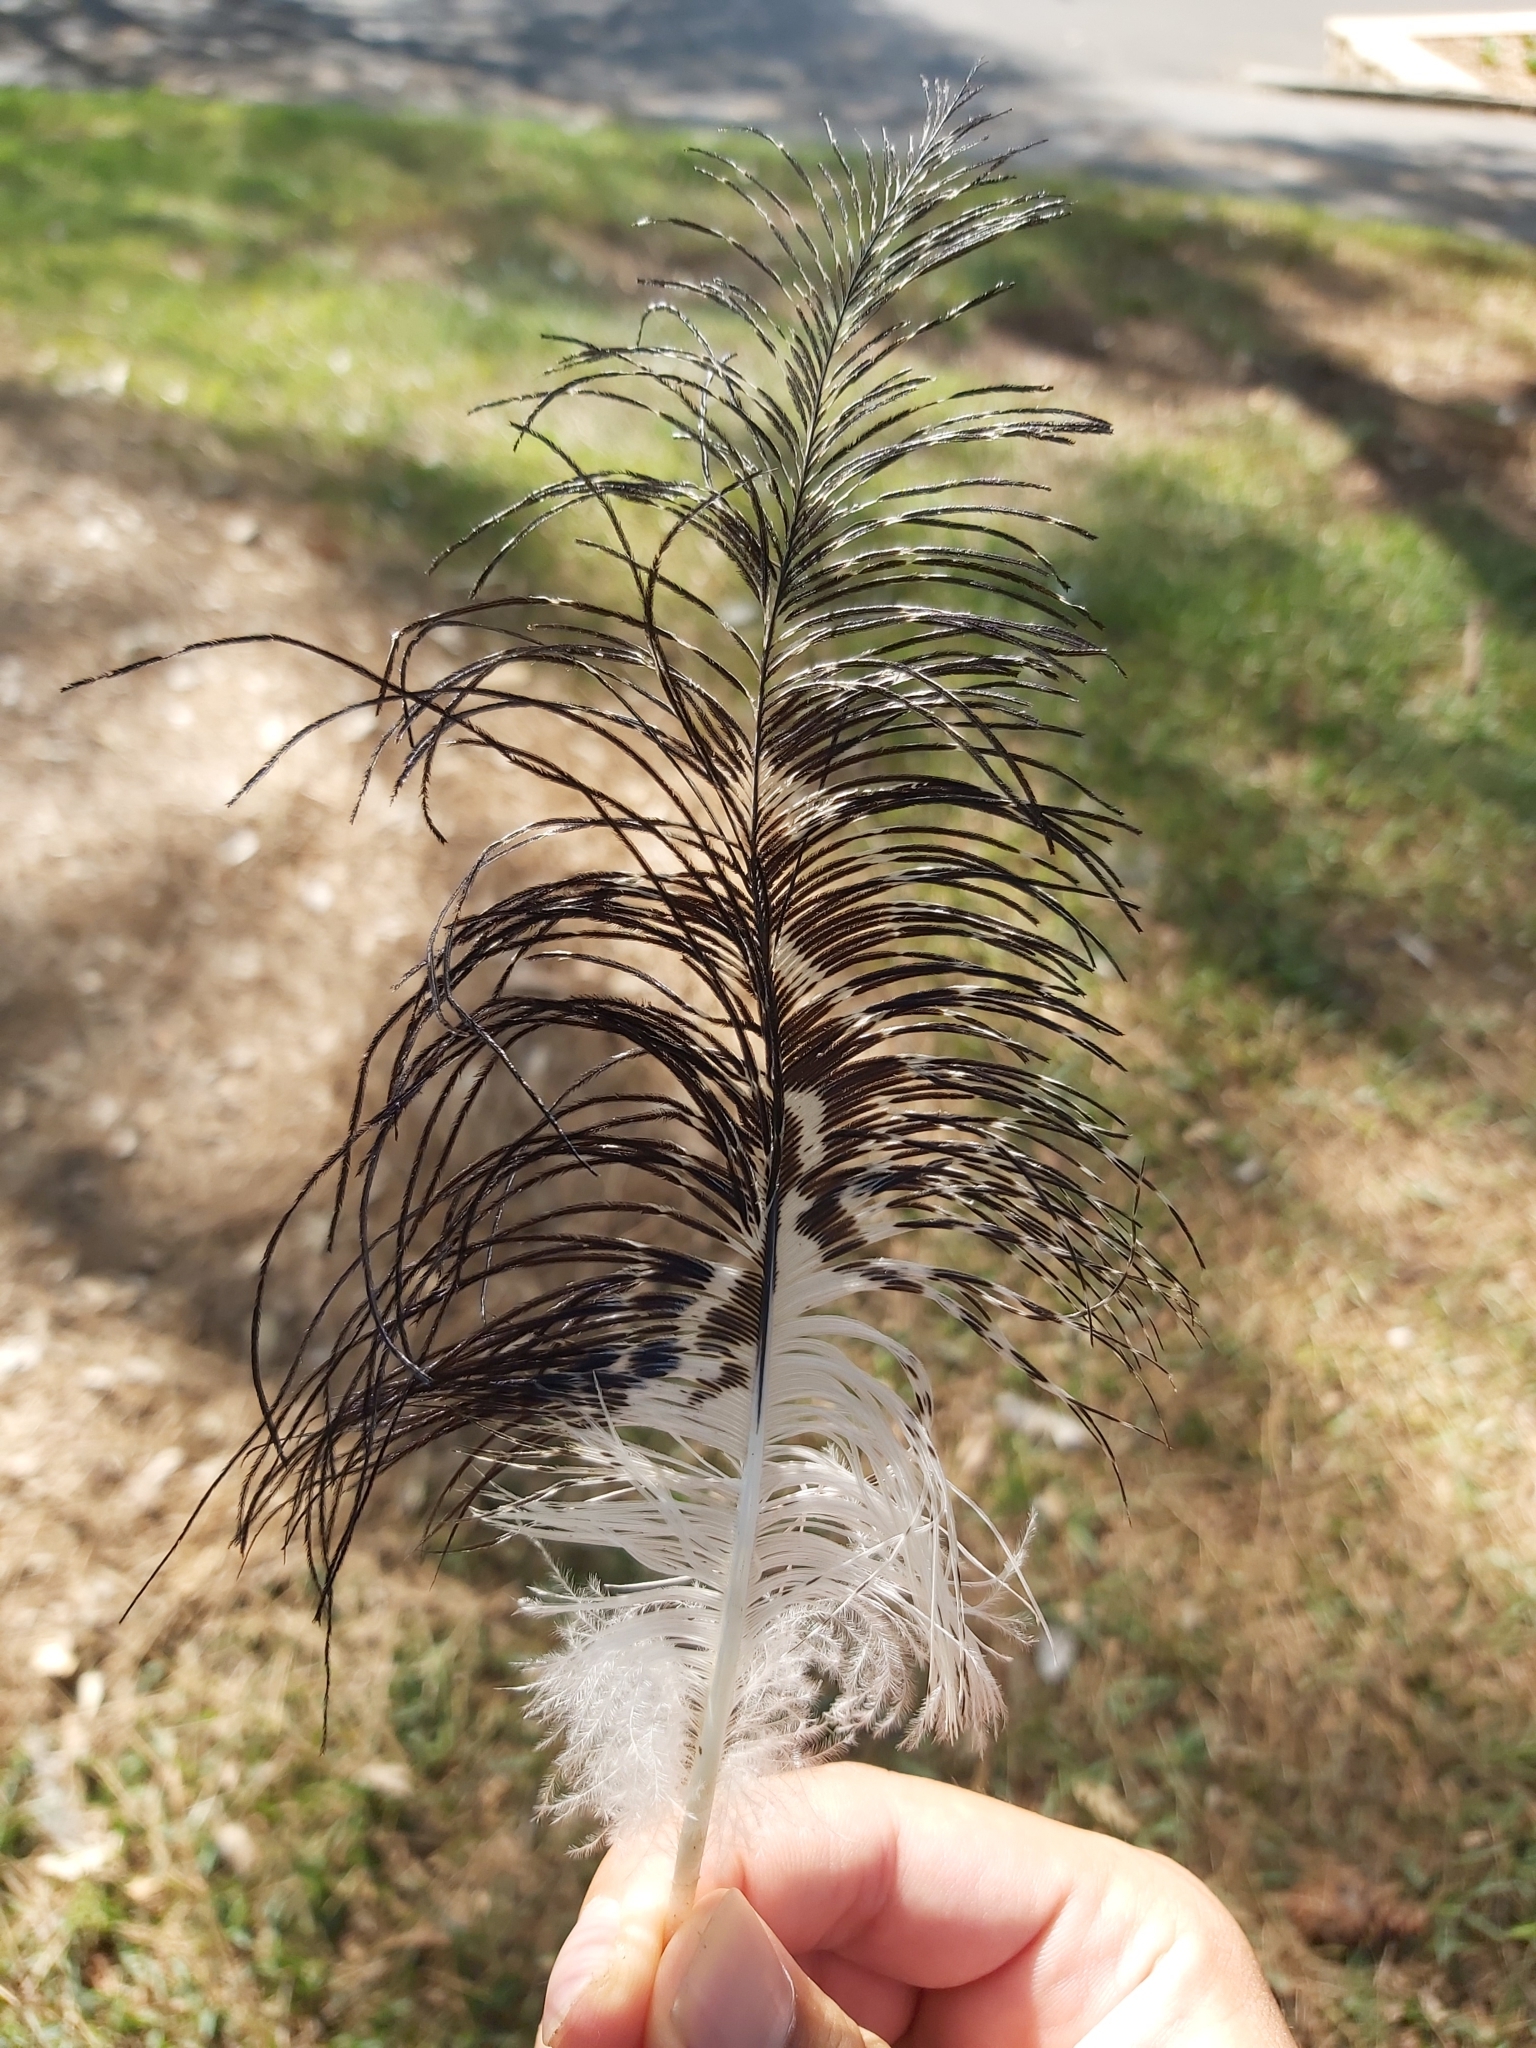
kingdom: Animalia
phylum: Chordata
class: Aves
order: Pelecaniformes
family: Threskiornithidae
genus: Threskiornis
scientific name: Threskiornis molucca
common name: Australian white ibis
